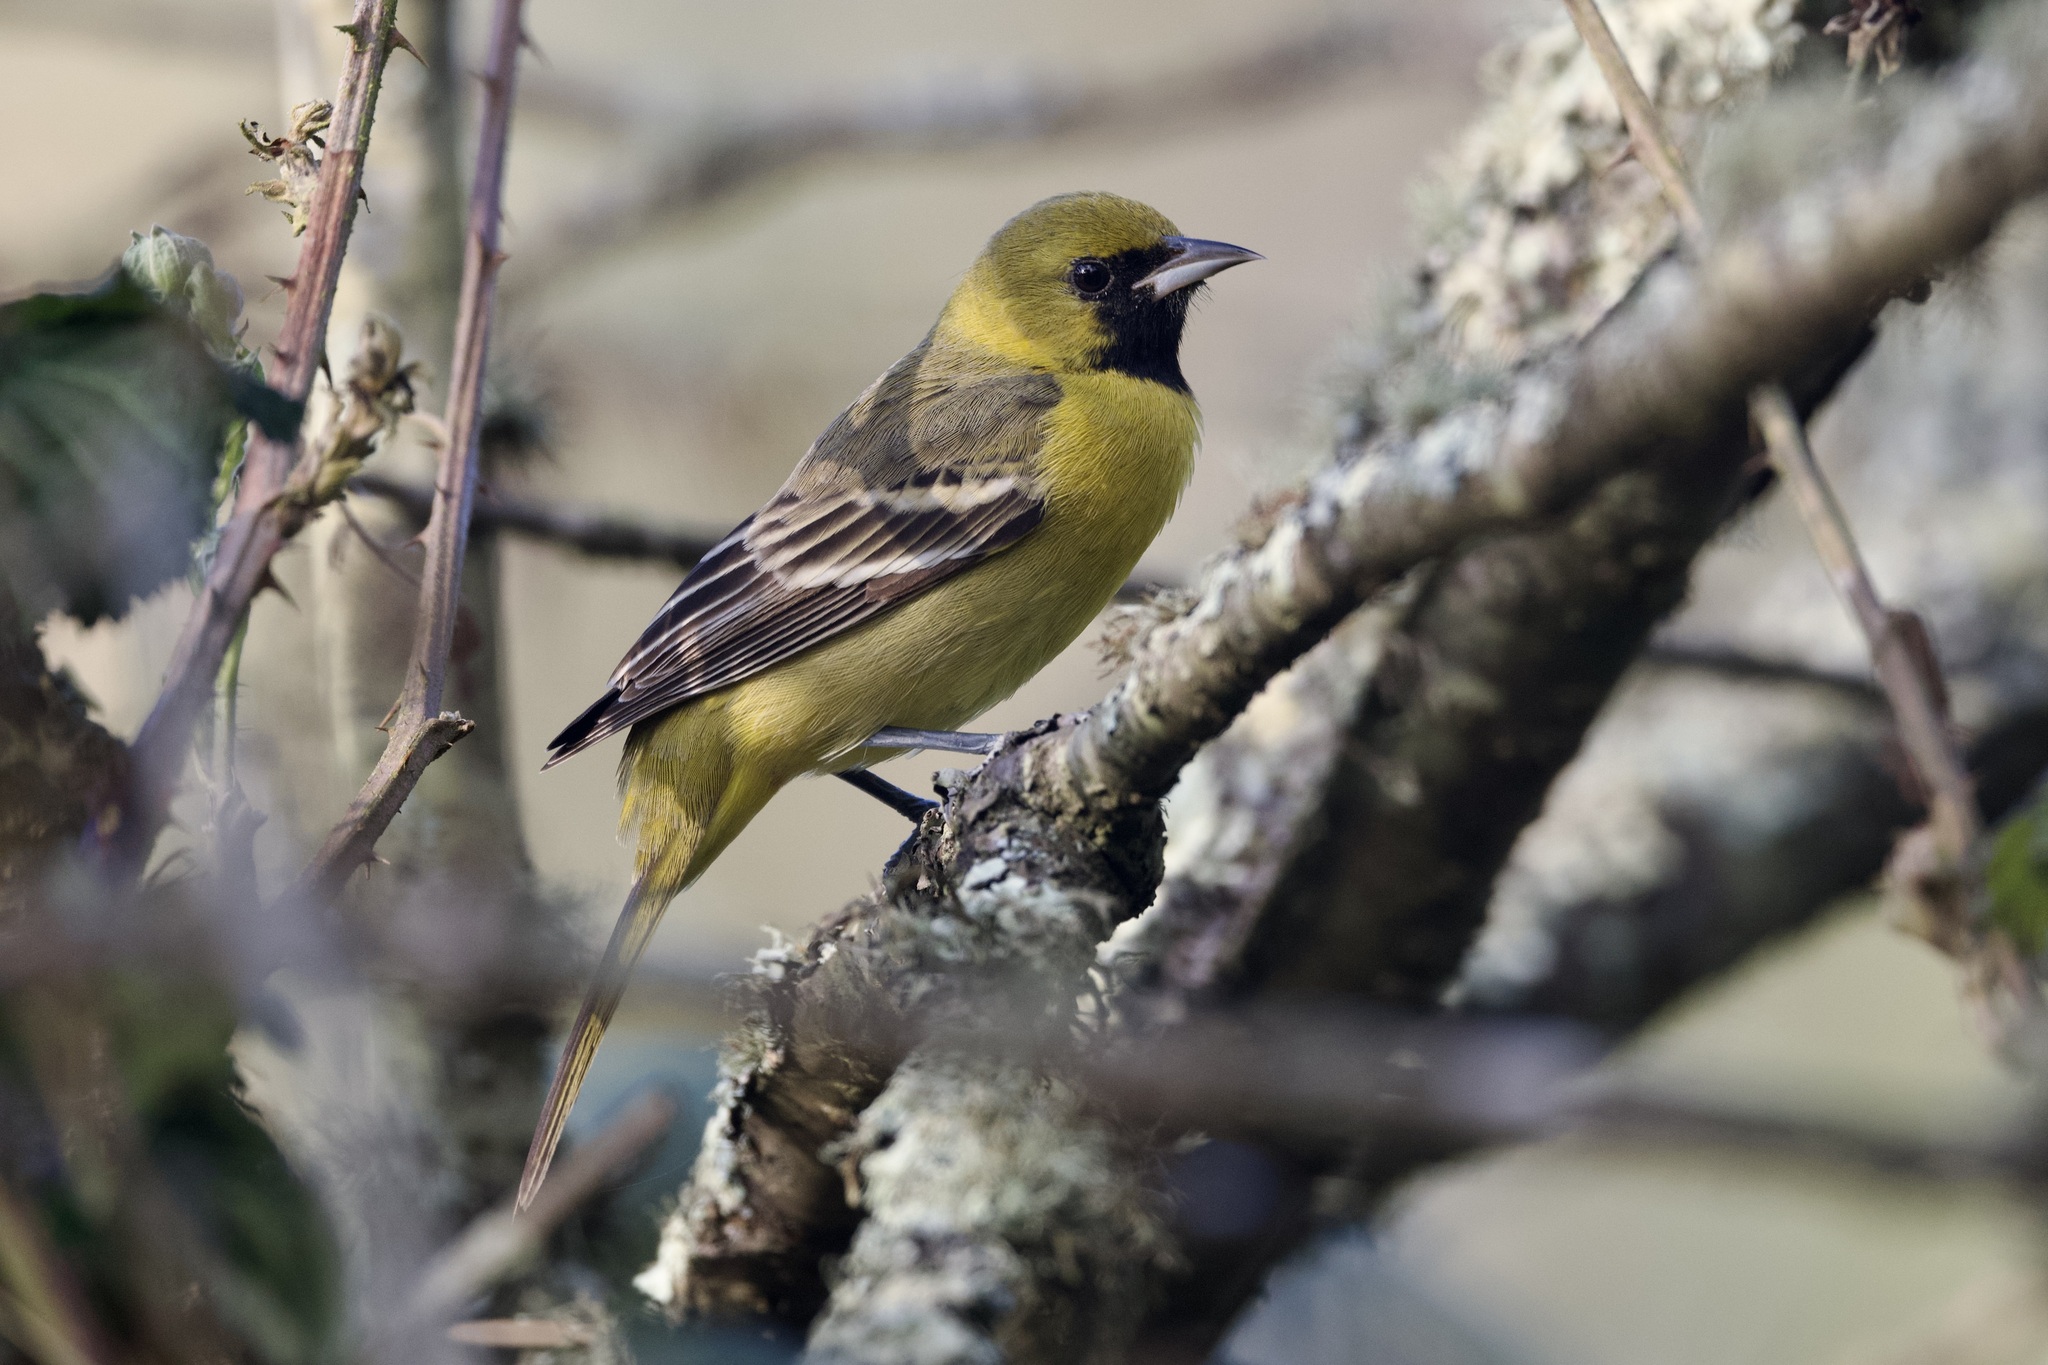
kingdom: Animalia
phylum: Chordata
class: Aves
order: Passeriformes
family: Icteridae
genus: Icterus
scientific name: Icterus spurius
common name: Orchard oriole
